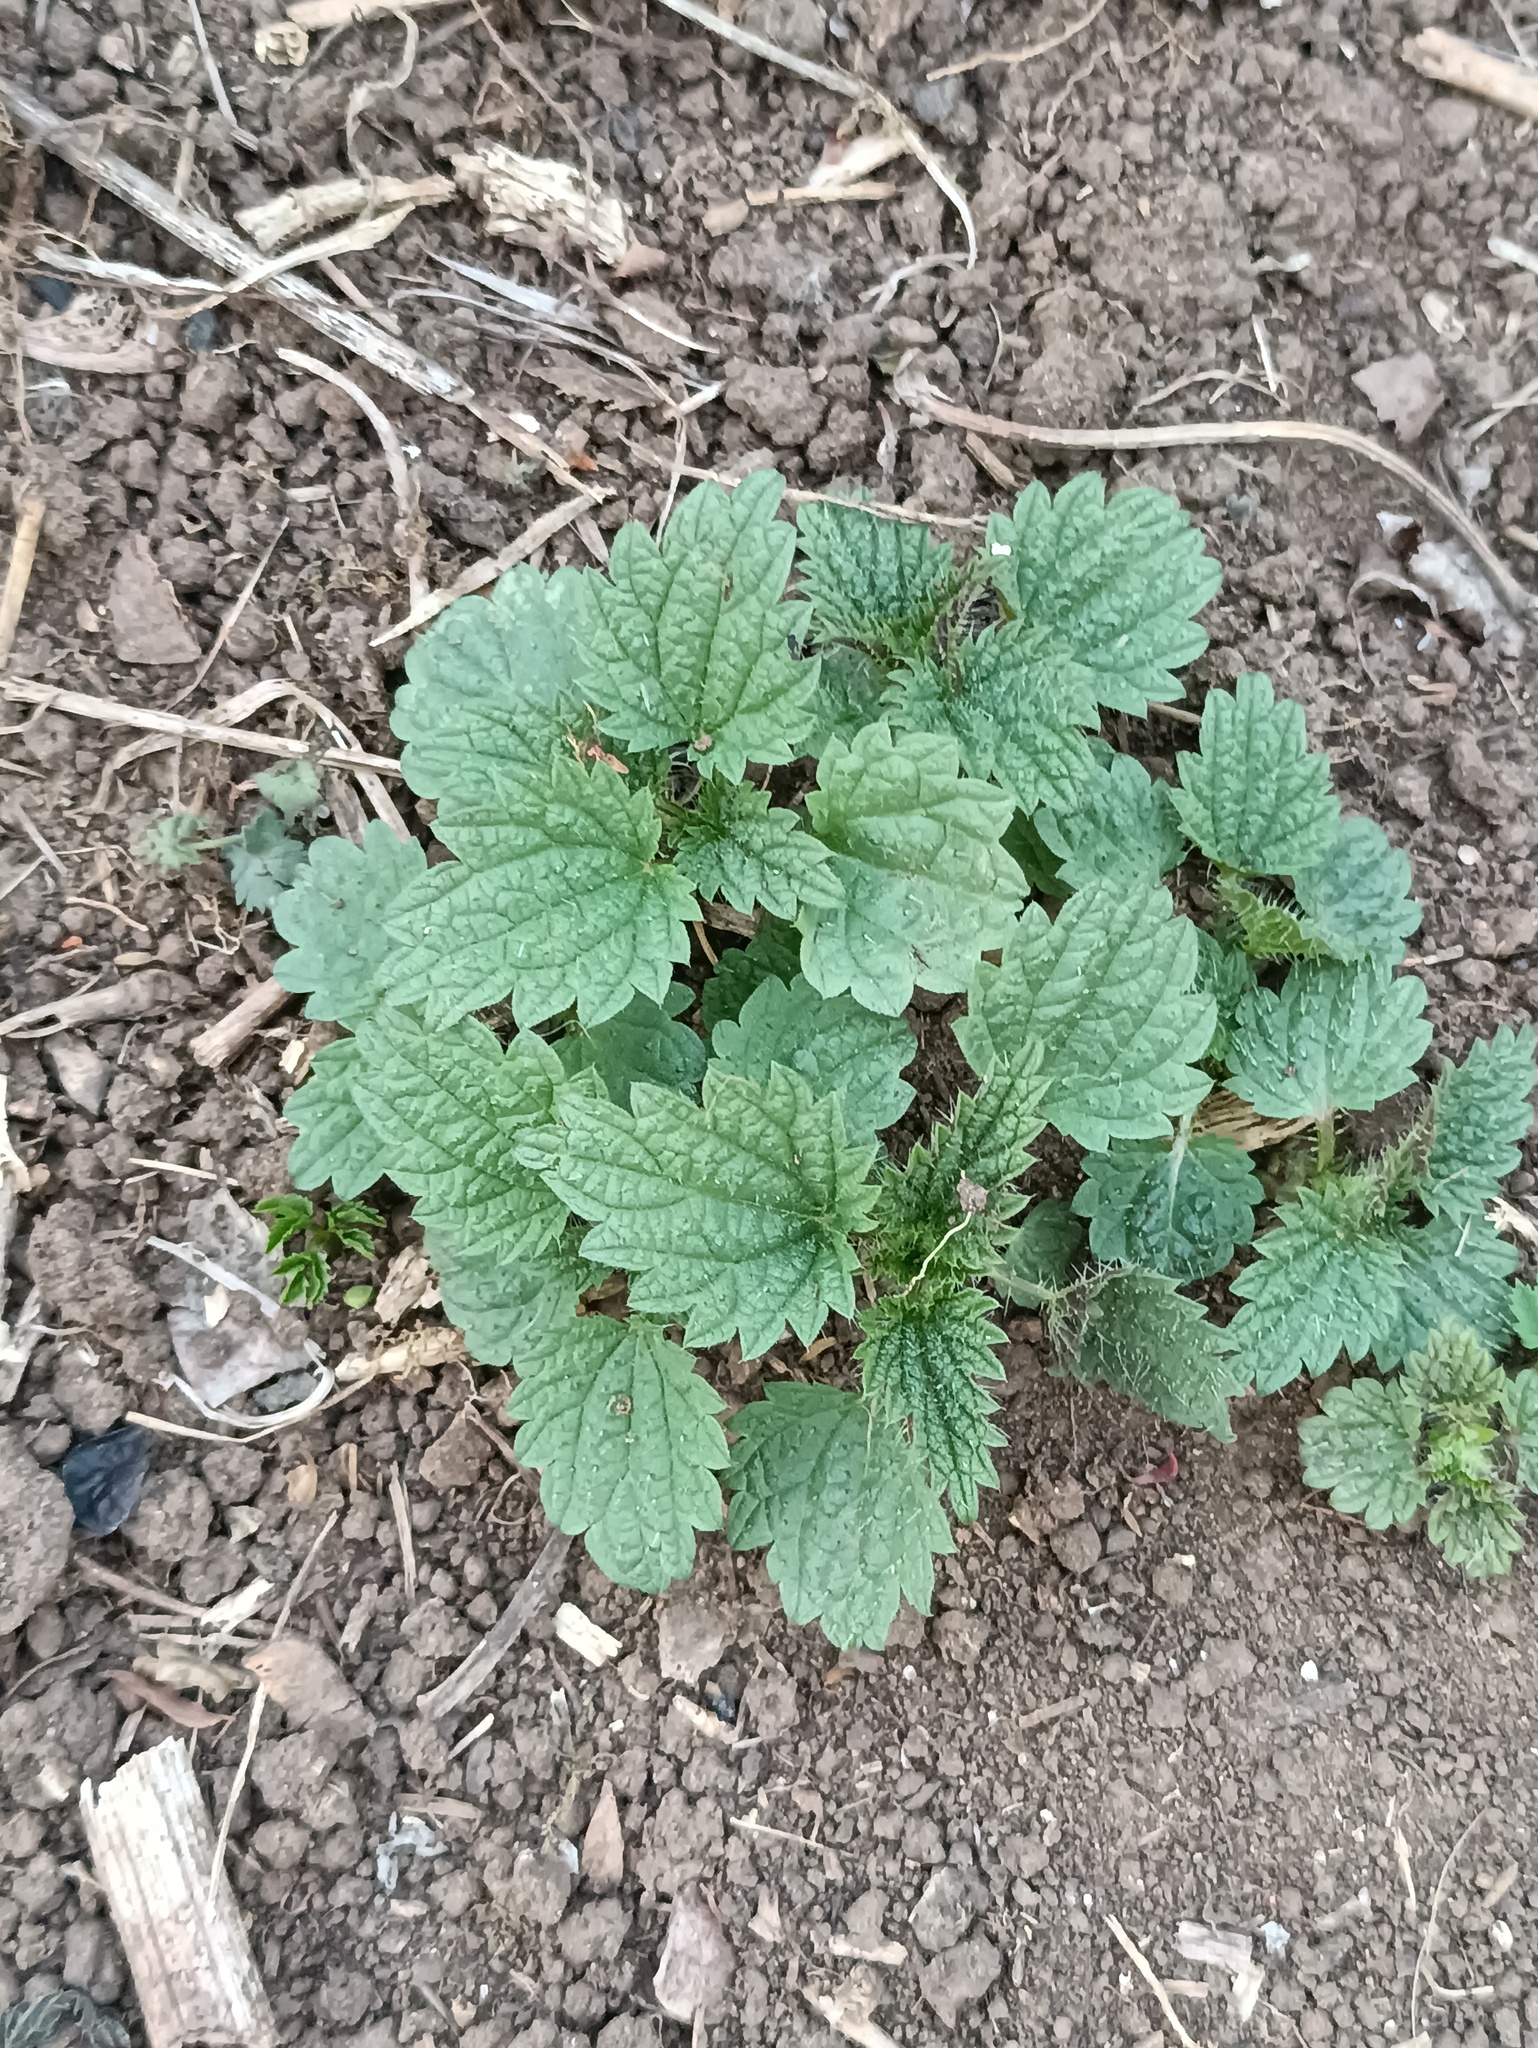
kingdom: Plantae
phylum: Tracheophyta
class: Magnoliopsida
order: Rosales
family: Urticaceae
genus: Urtica
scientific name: Urtica dioica
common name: Common nettle
